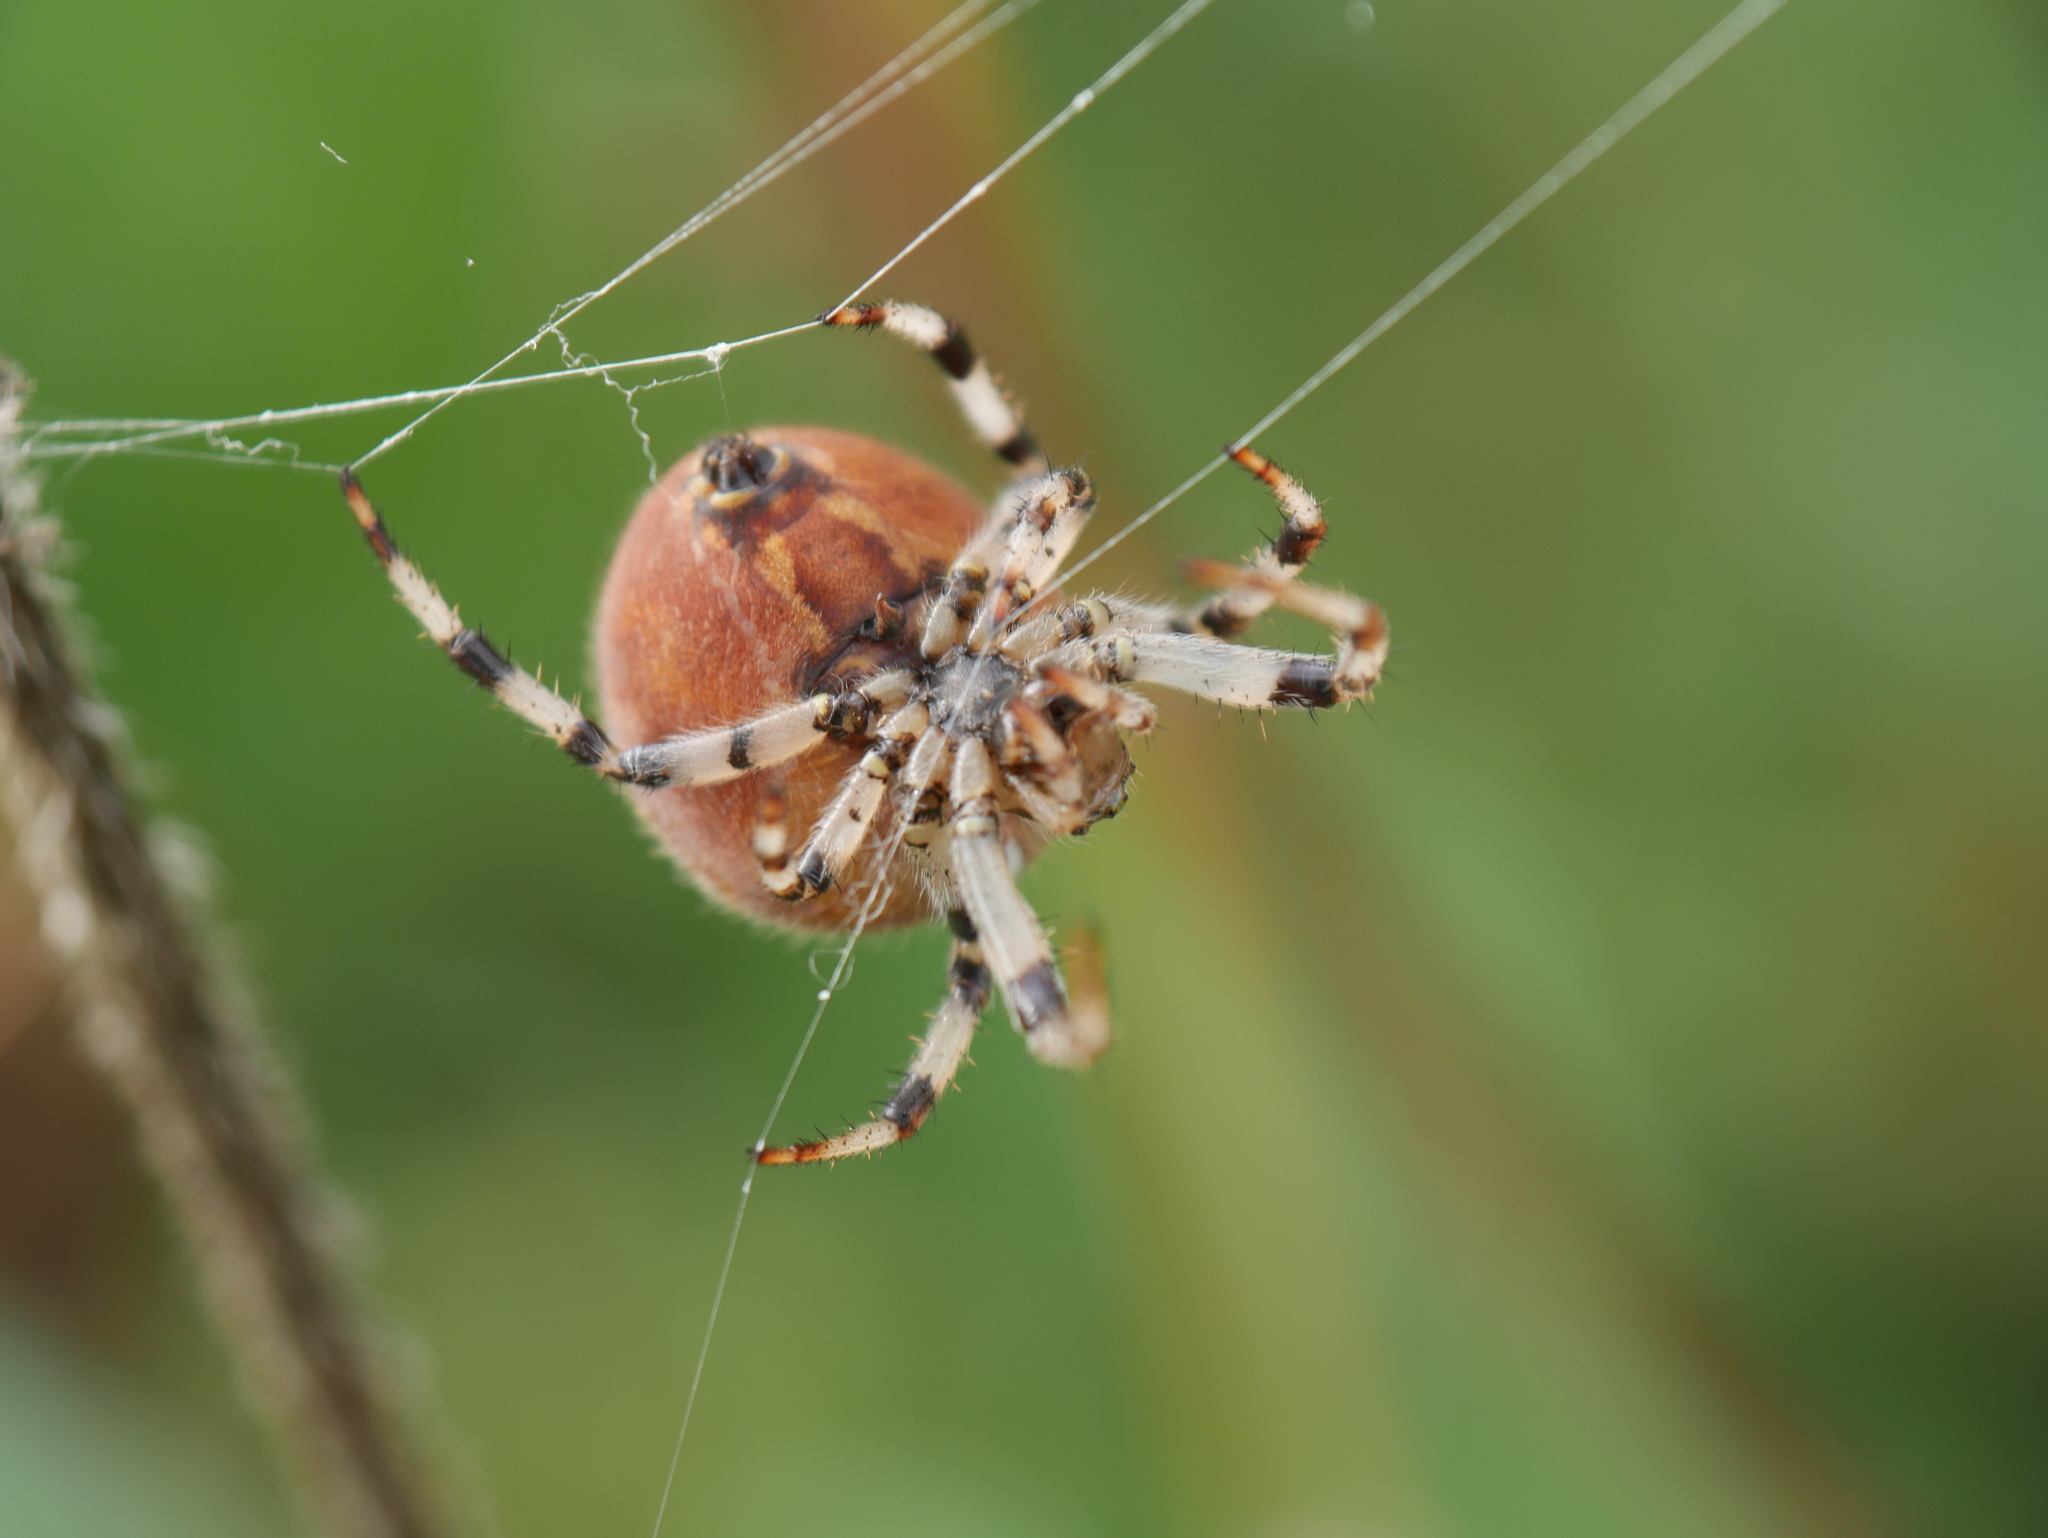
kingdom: Animalia
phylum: Arthropoda
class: Arachnida
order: Araneae
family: Araneidae
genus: Araneus
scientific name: Araneus quadratus
